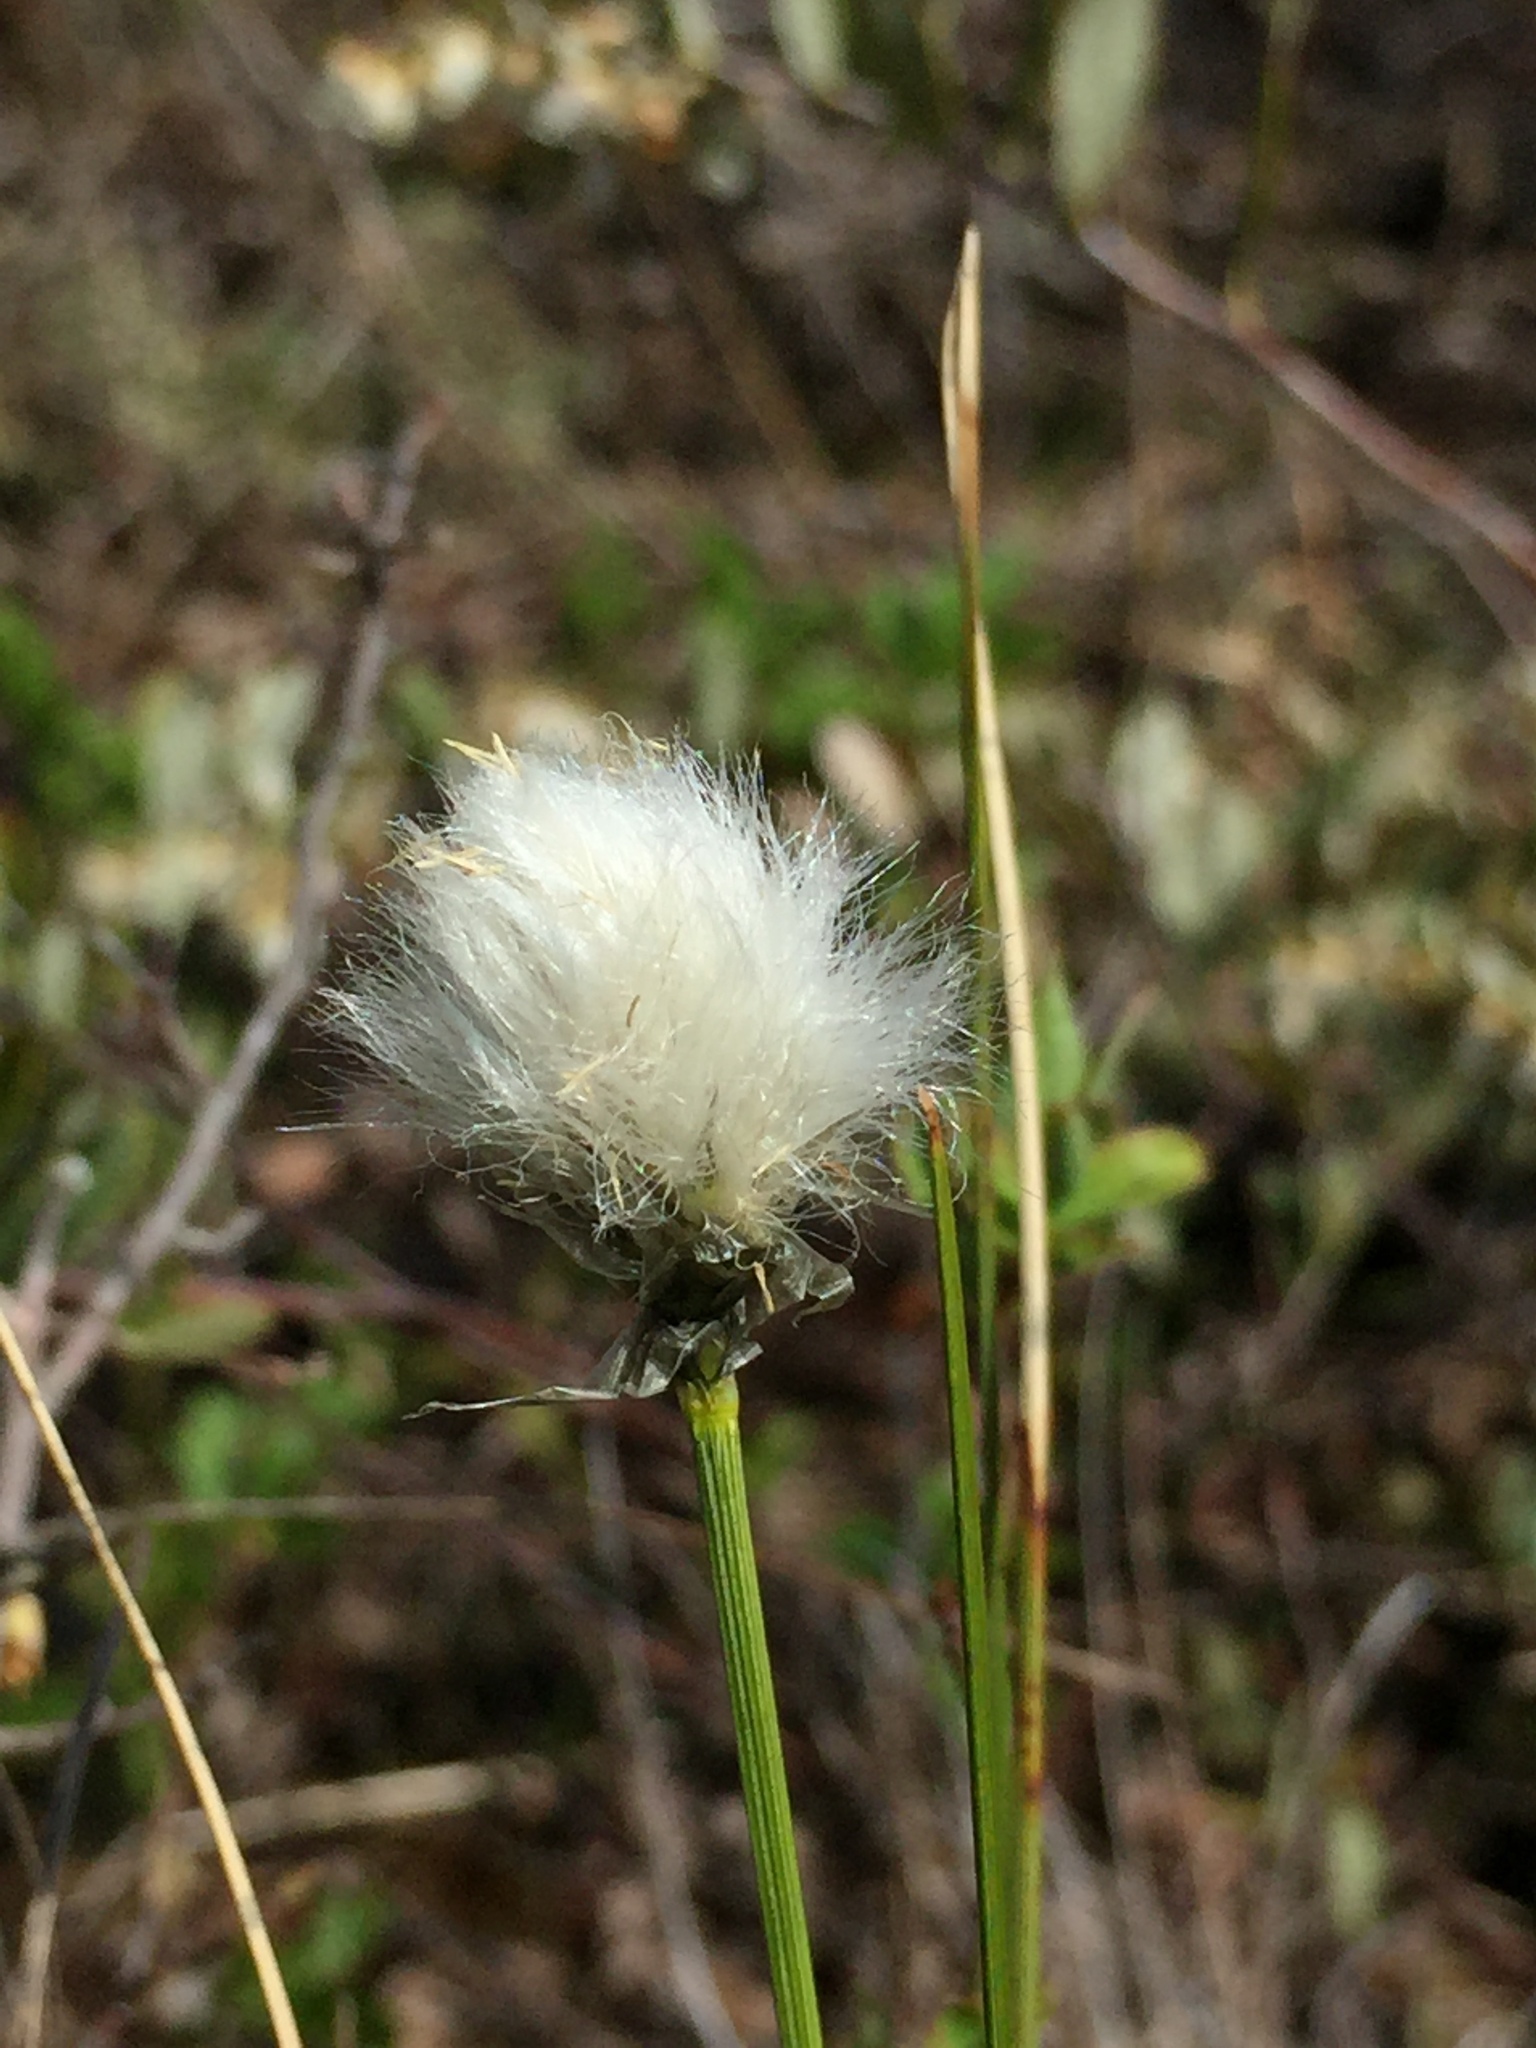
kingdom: Plantae
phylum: Tracheophyta
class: Liliopsida
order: Poales
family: Cyperaceae
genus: Eriophorum
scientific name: Eriophorum vaginatum
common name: Hare's-tail cottongrass
